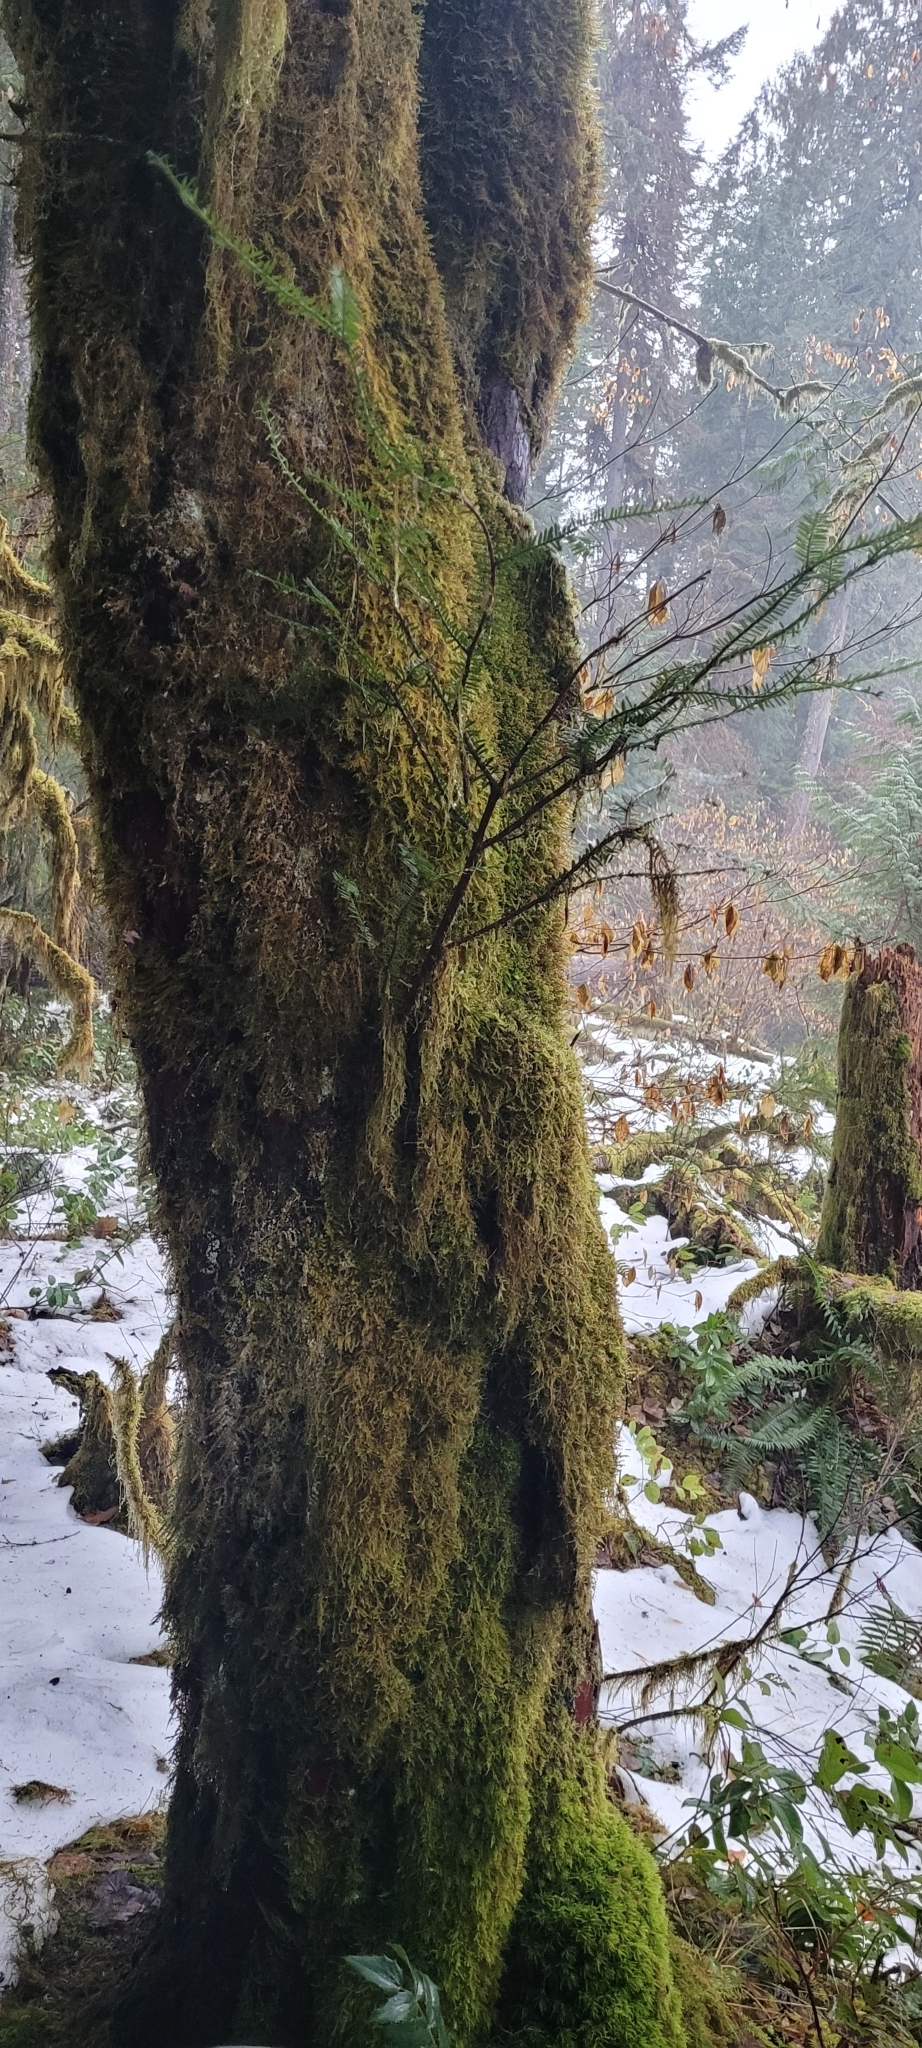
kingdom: Plantae
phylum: Tracheophyta
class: Pinopsida
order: Pinales
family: Taxaceae
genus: Taxus
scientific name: Taxus brevifolia
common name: Pacific yew
